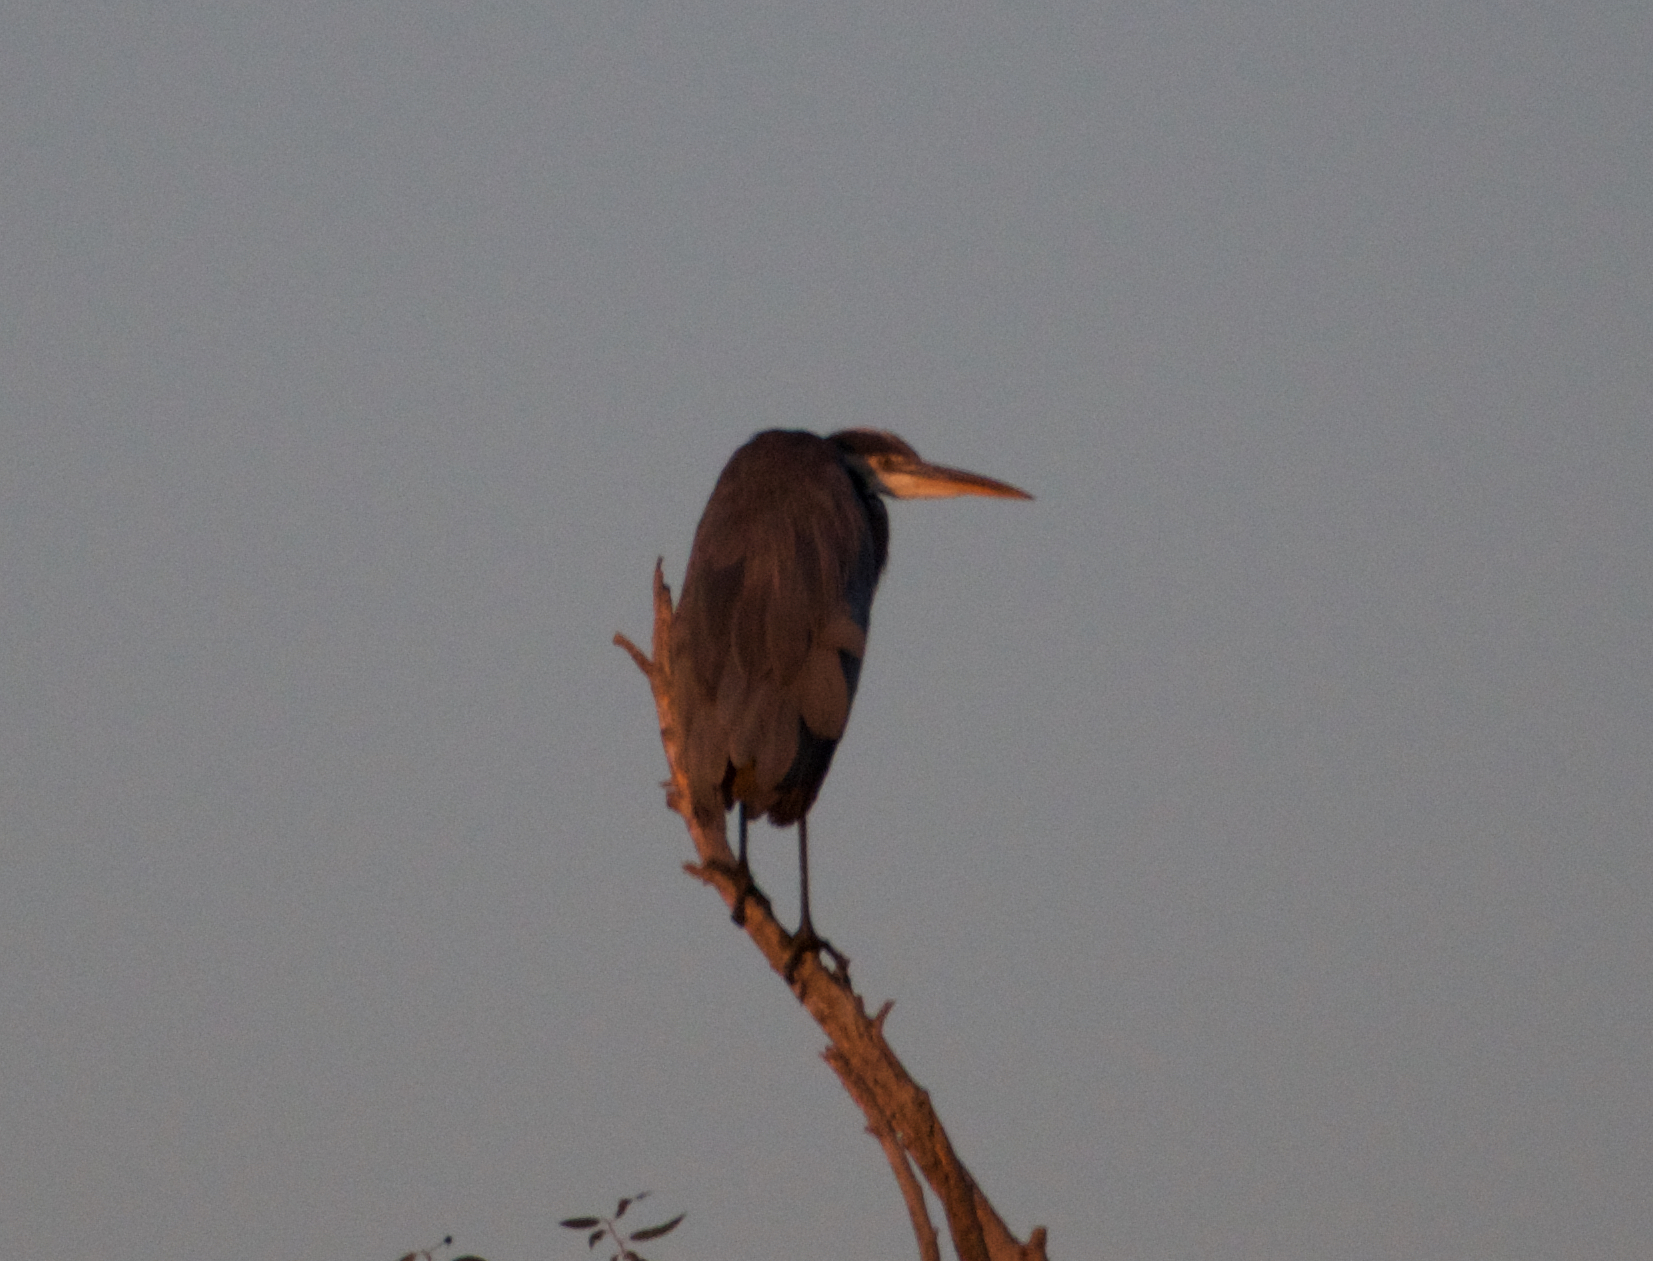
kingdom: Animalia
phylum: Chordata
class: Aves
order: Pelecaniformes
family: Ardeidae
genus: Ardea
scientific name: Ardea herodias
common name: Great blue heron
